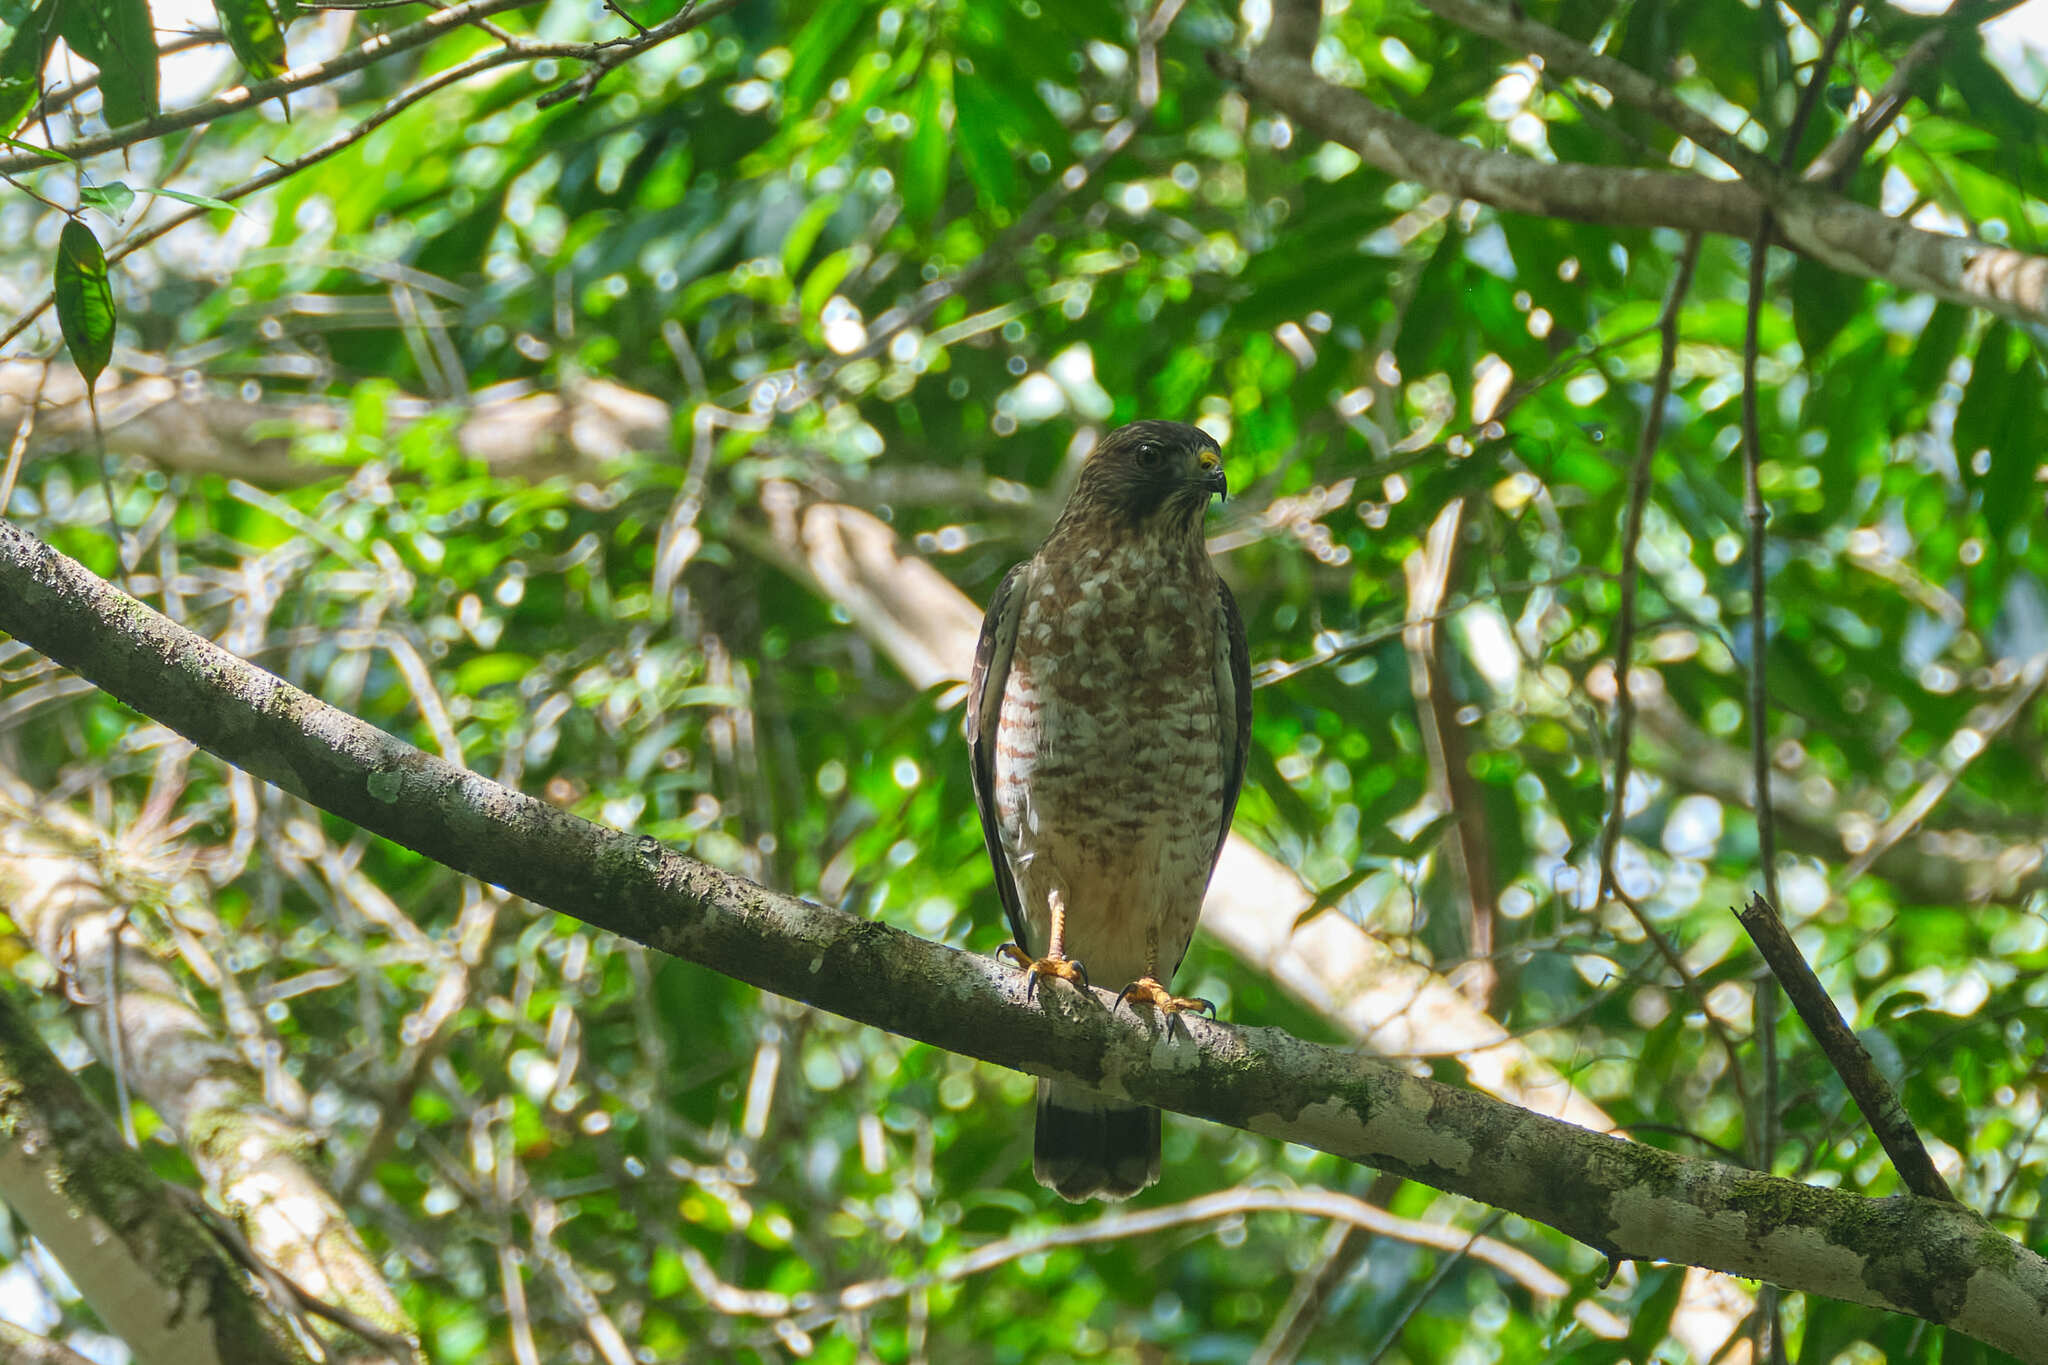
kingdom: Animalia
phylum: Chordata
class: Aves
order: Accipitriformes
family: Accipitridae
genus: Buteo
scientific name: Buteo platypterus
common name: Broad-winged hawk
